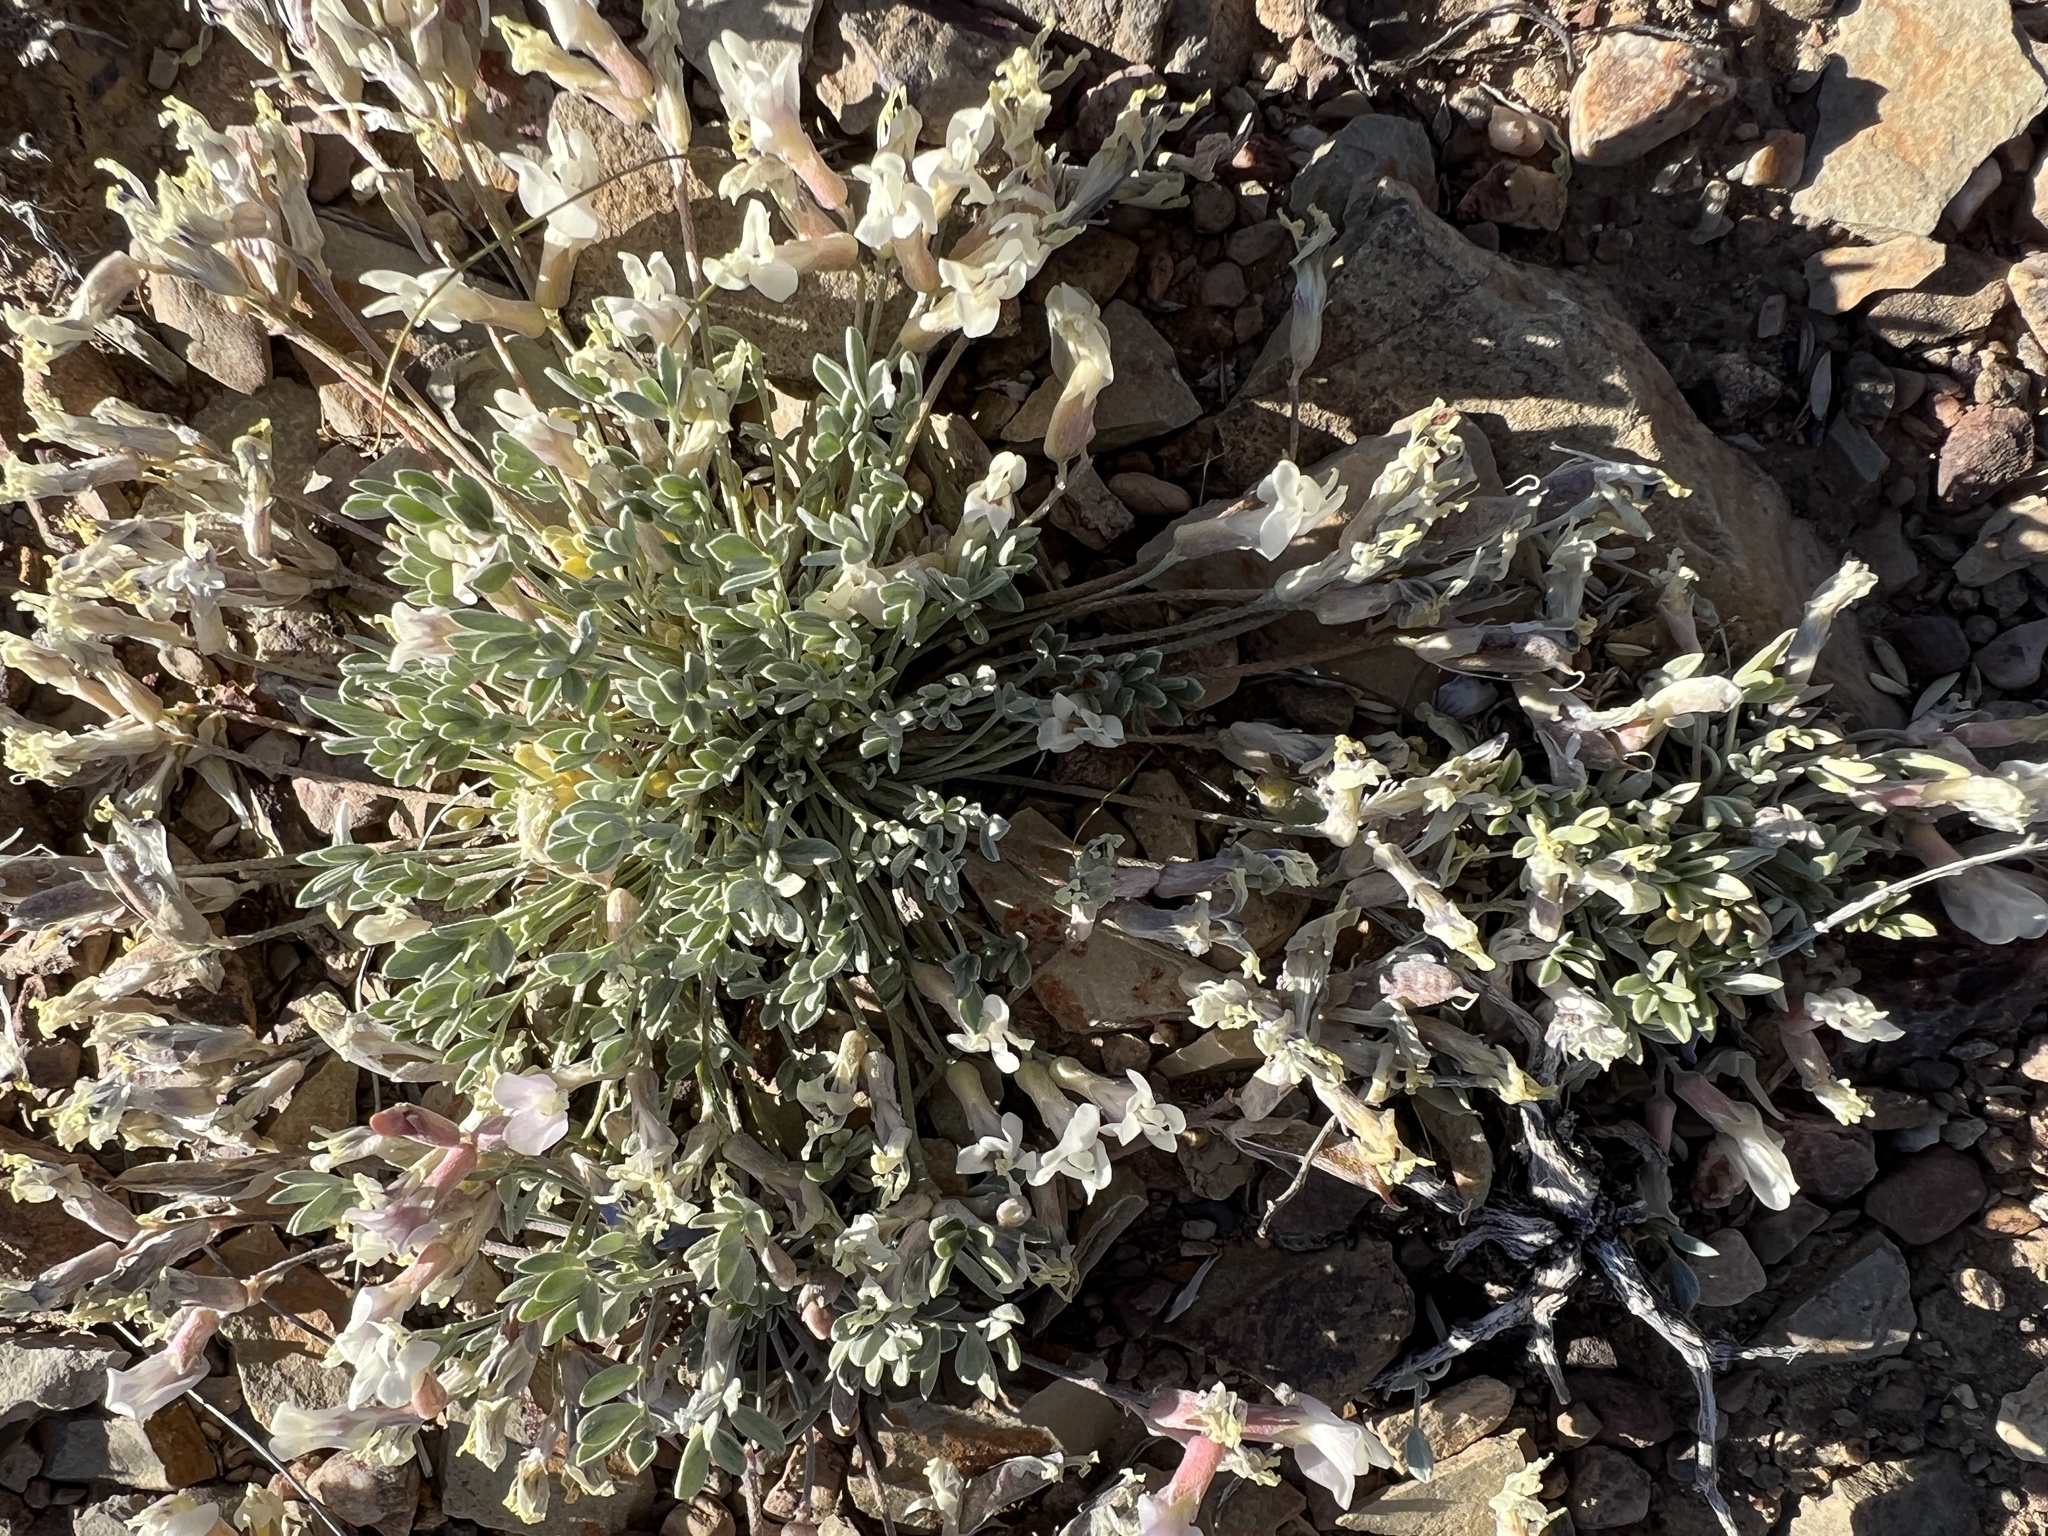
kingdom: Plantae
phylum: Tracheophyta
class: Magnoliopsida
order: Fabales
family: Fabaceae
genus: Astragalus
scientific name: Astragalus calycosus
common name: King's milkvetch
